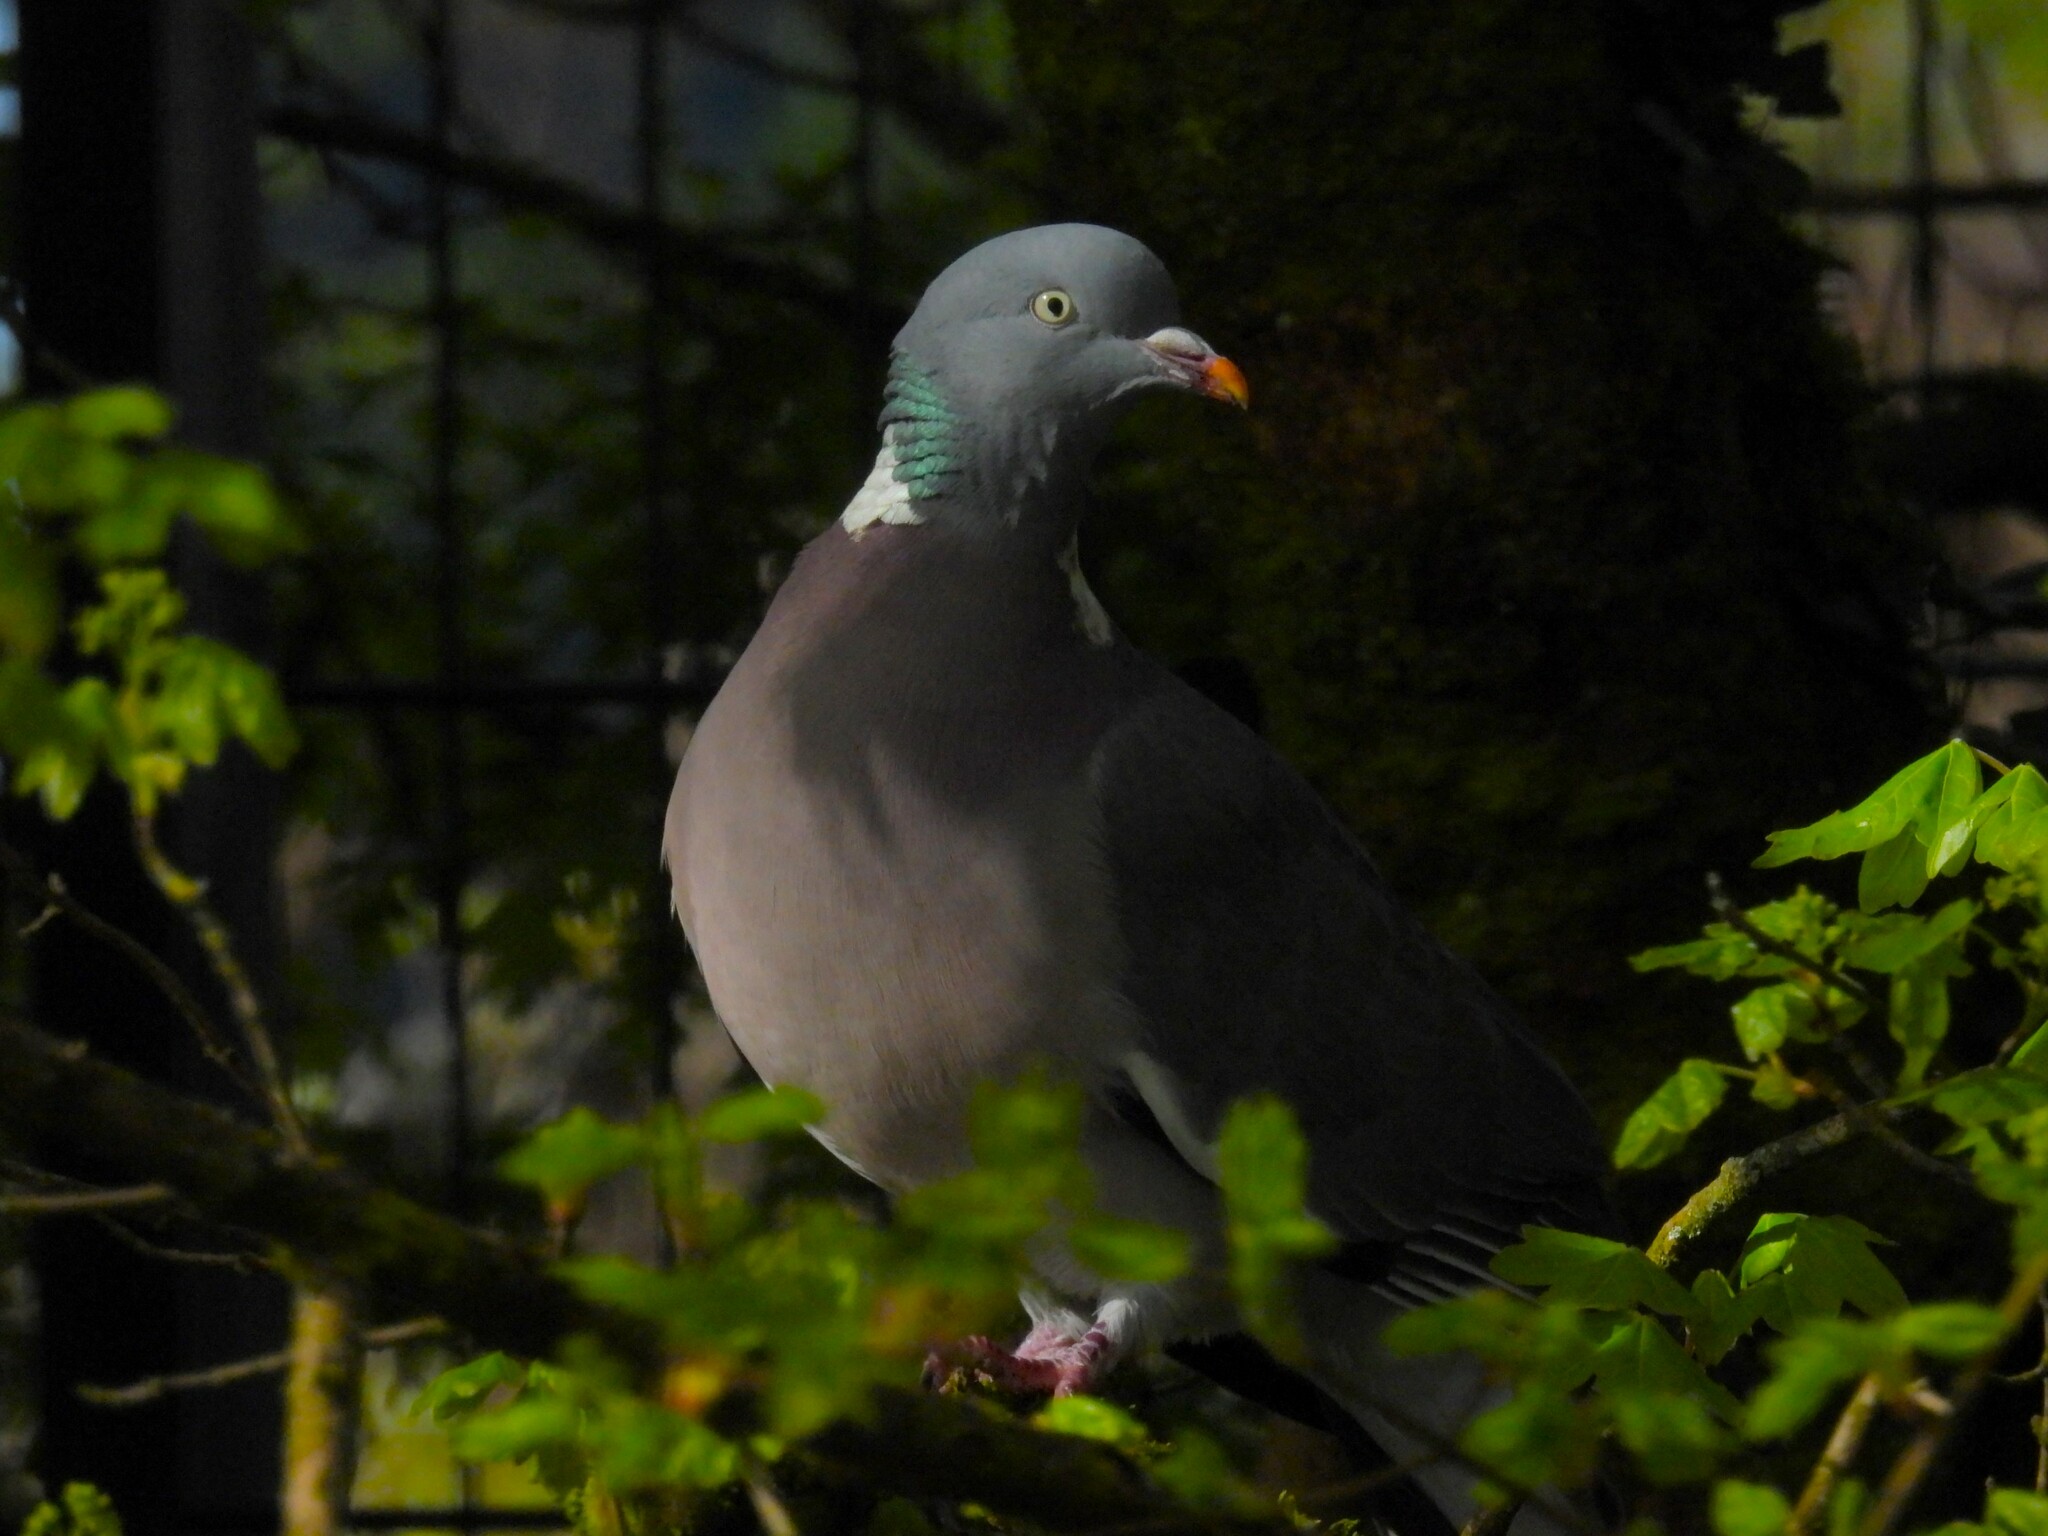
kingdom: Animalia
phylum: Chordata
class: Aves
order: Columbiformes
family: Columbidae
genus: Columba
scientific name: Columba palumbus
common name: Common wood pigeon
